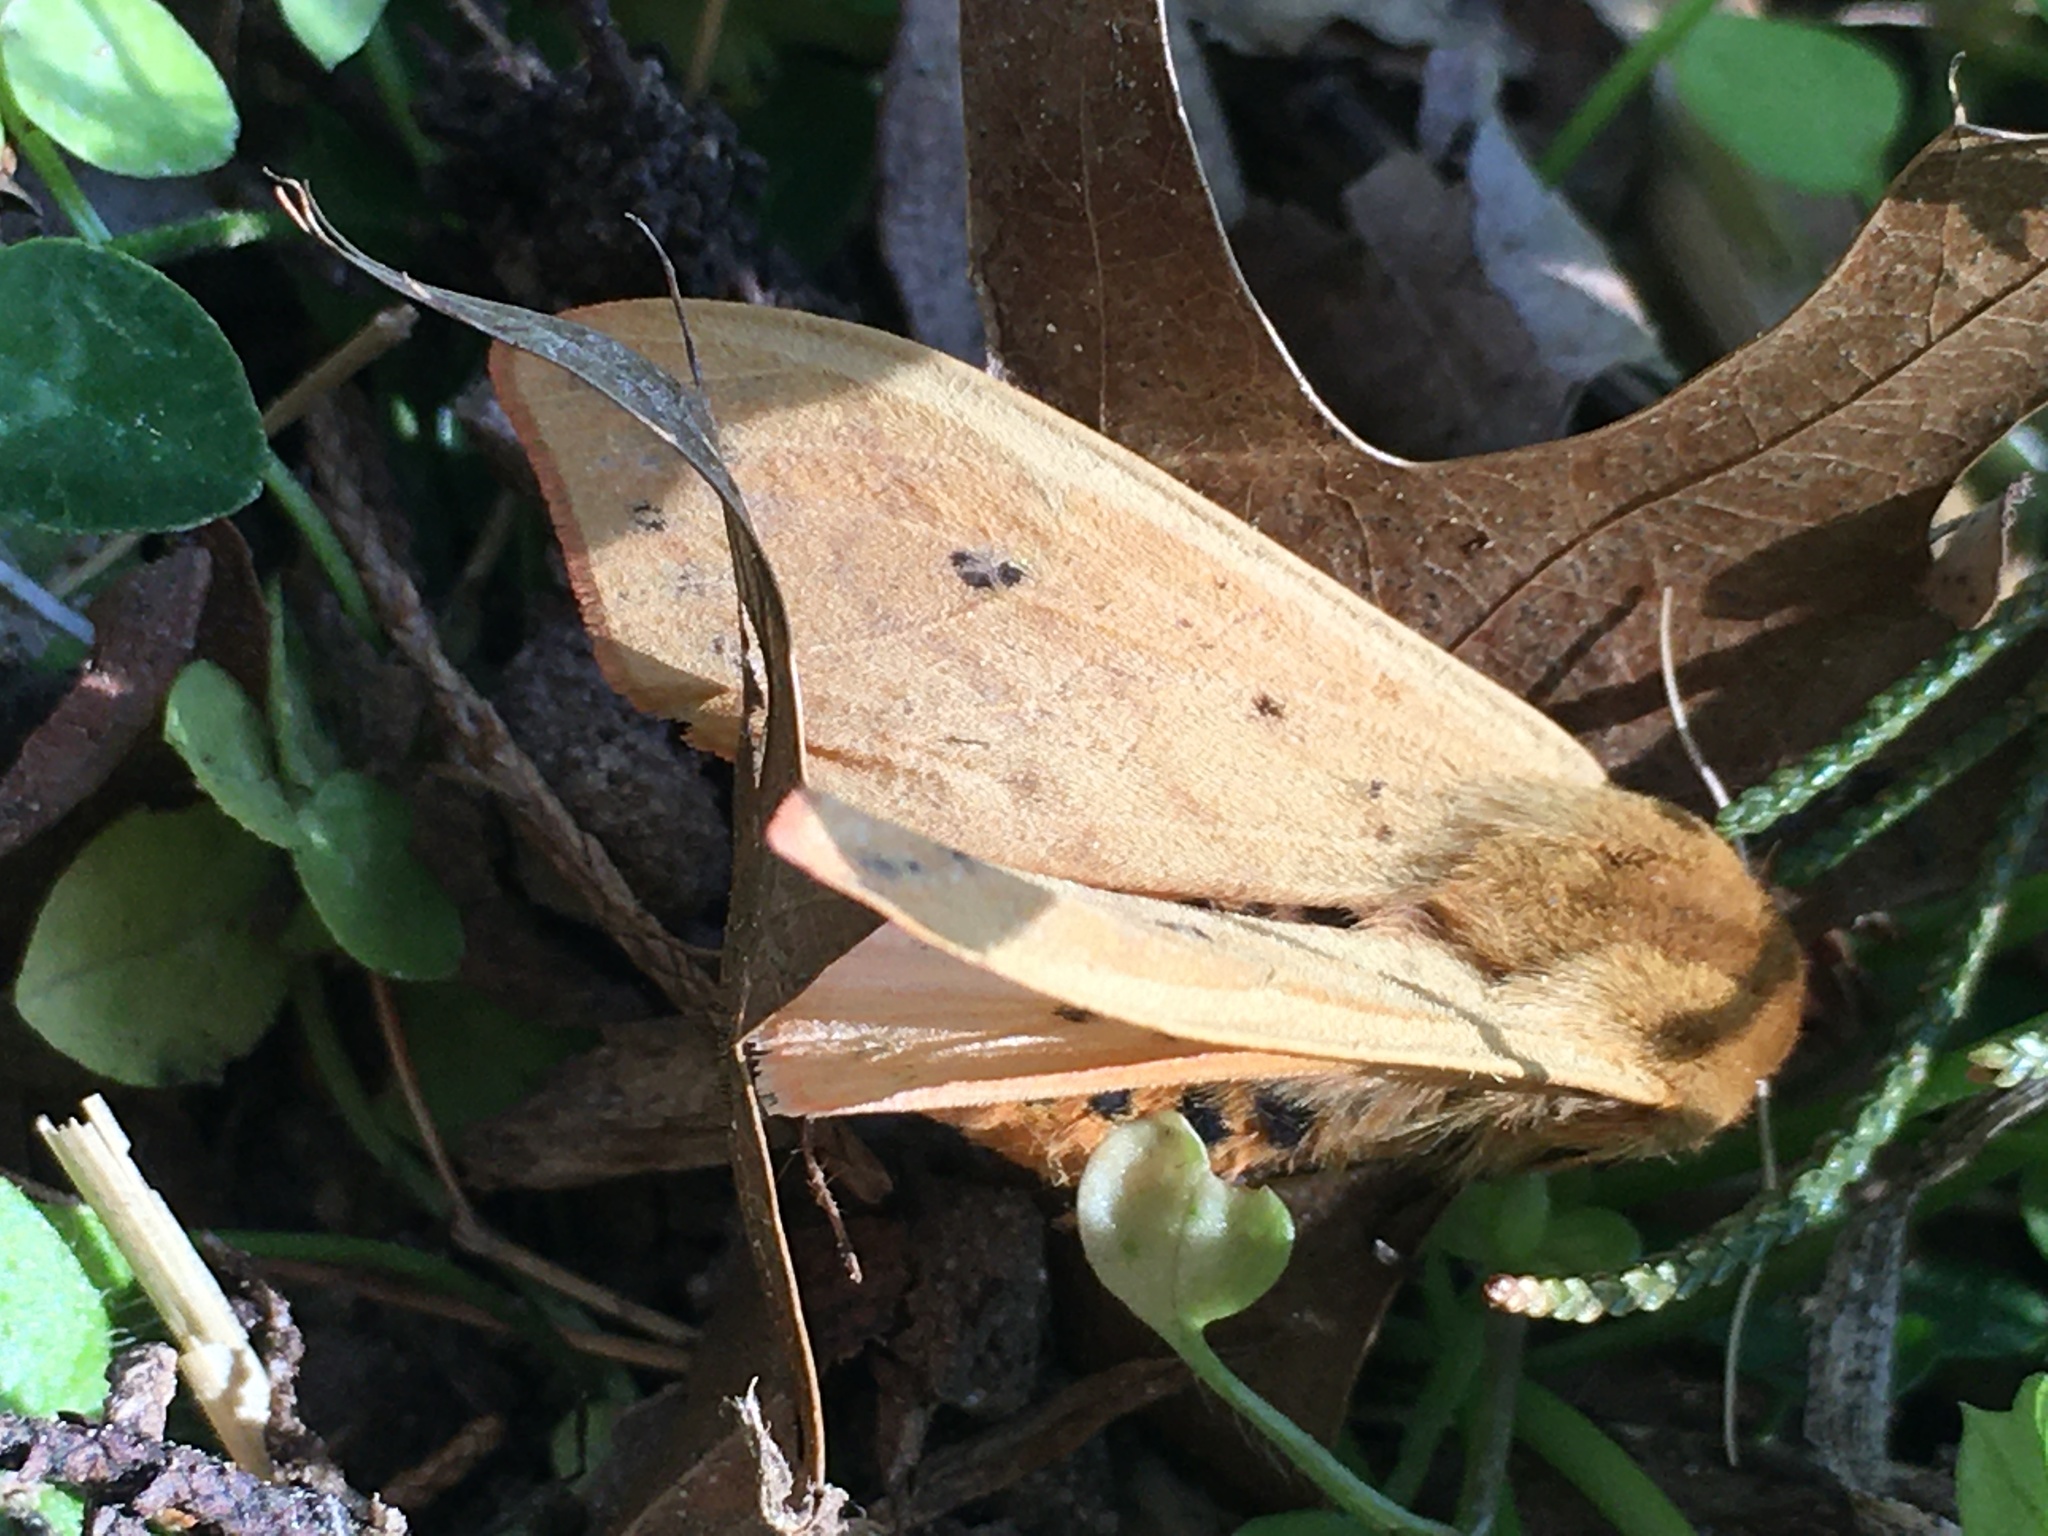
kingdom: Animalia
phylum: Arthropoda
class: Insecta
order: Lepidoptera
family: Erebidae
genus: Pyrrharctia
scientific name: Pyrrharctia isabella
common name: Isabella tiger moth
